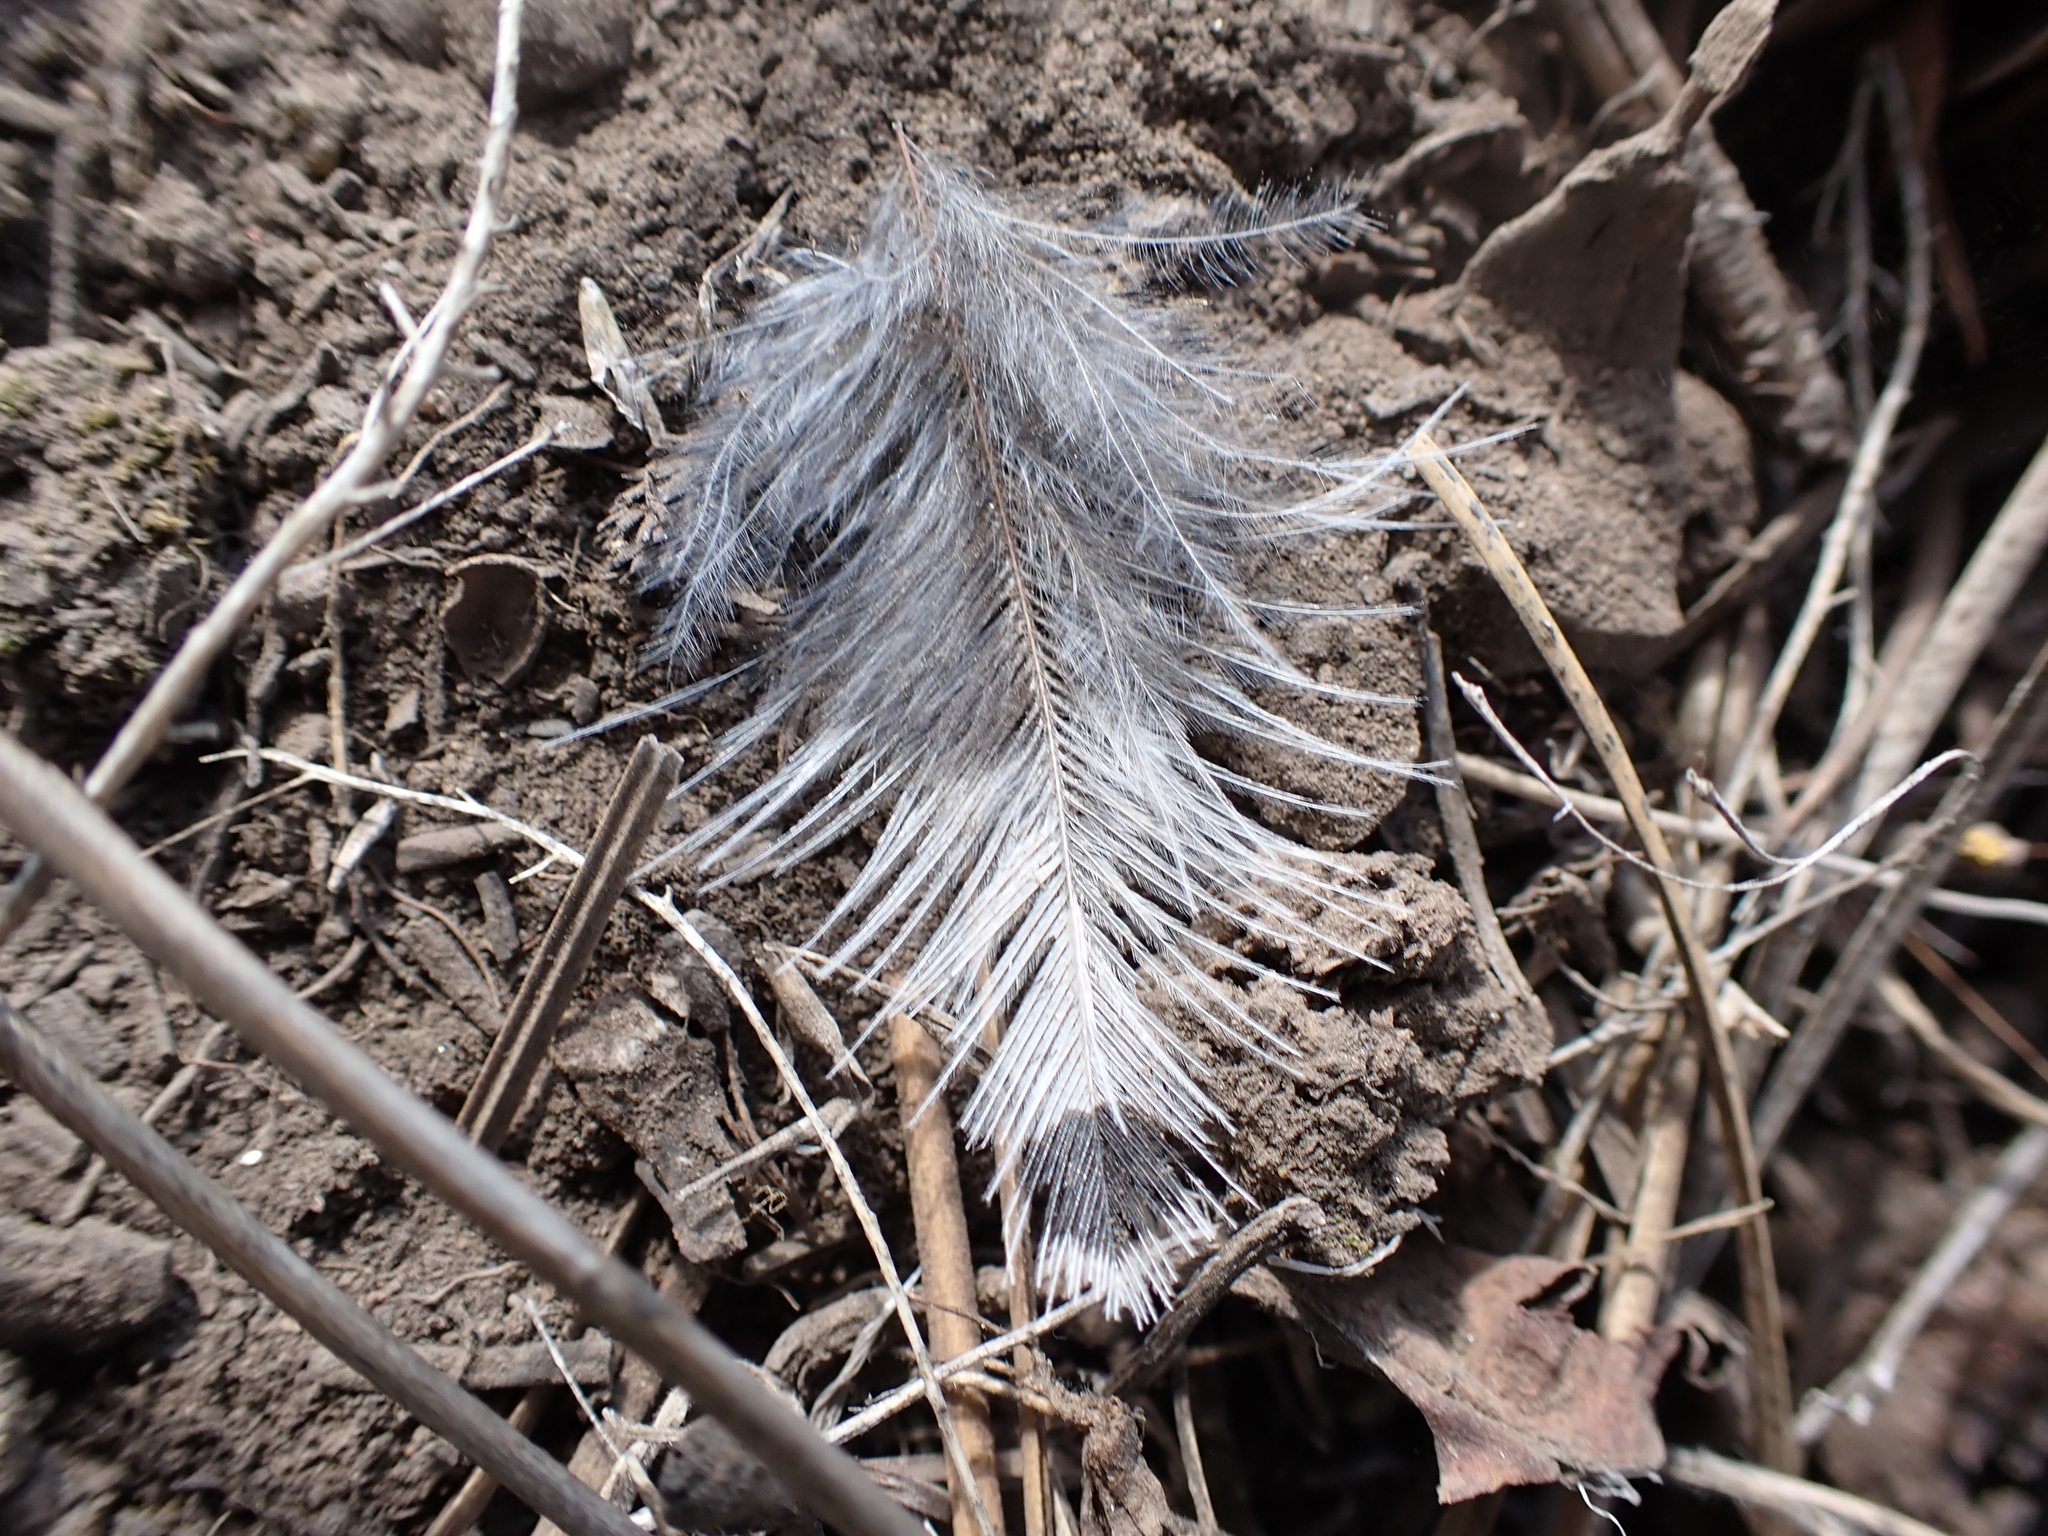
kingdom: Animalia
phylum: Chordata
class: Aves
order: Piciformes
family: Picidae
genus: Colaptes
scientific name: Colaptes auratus
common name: Northern flicker
